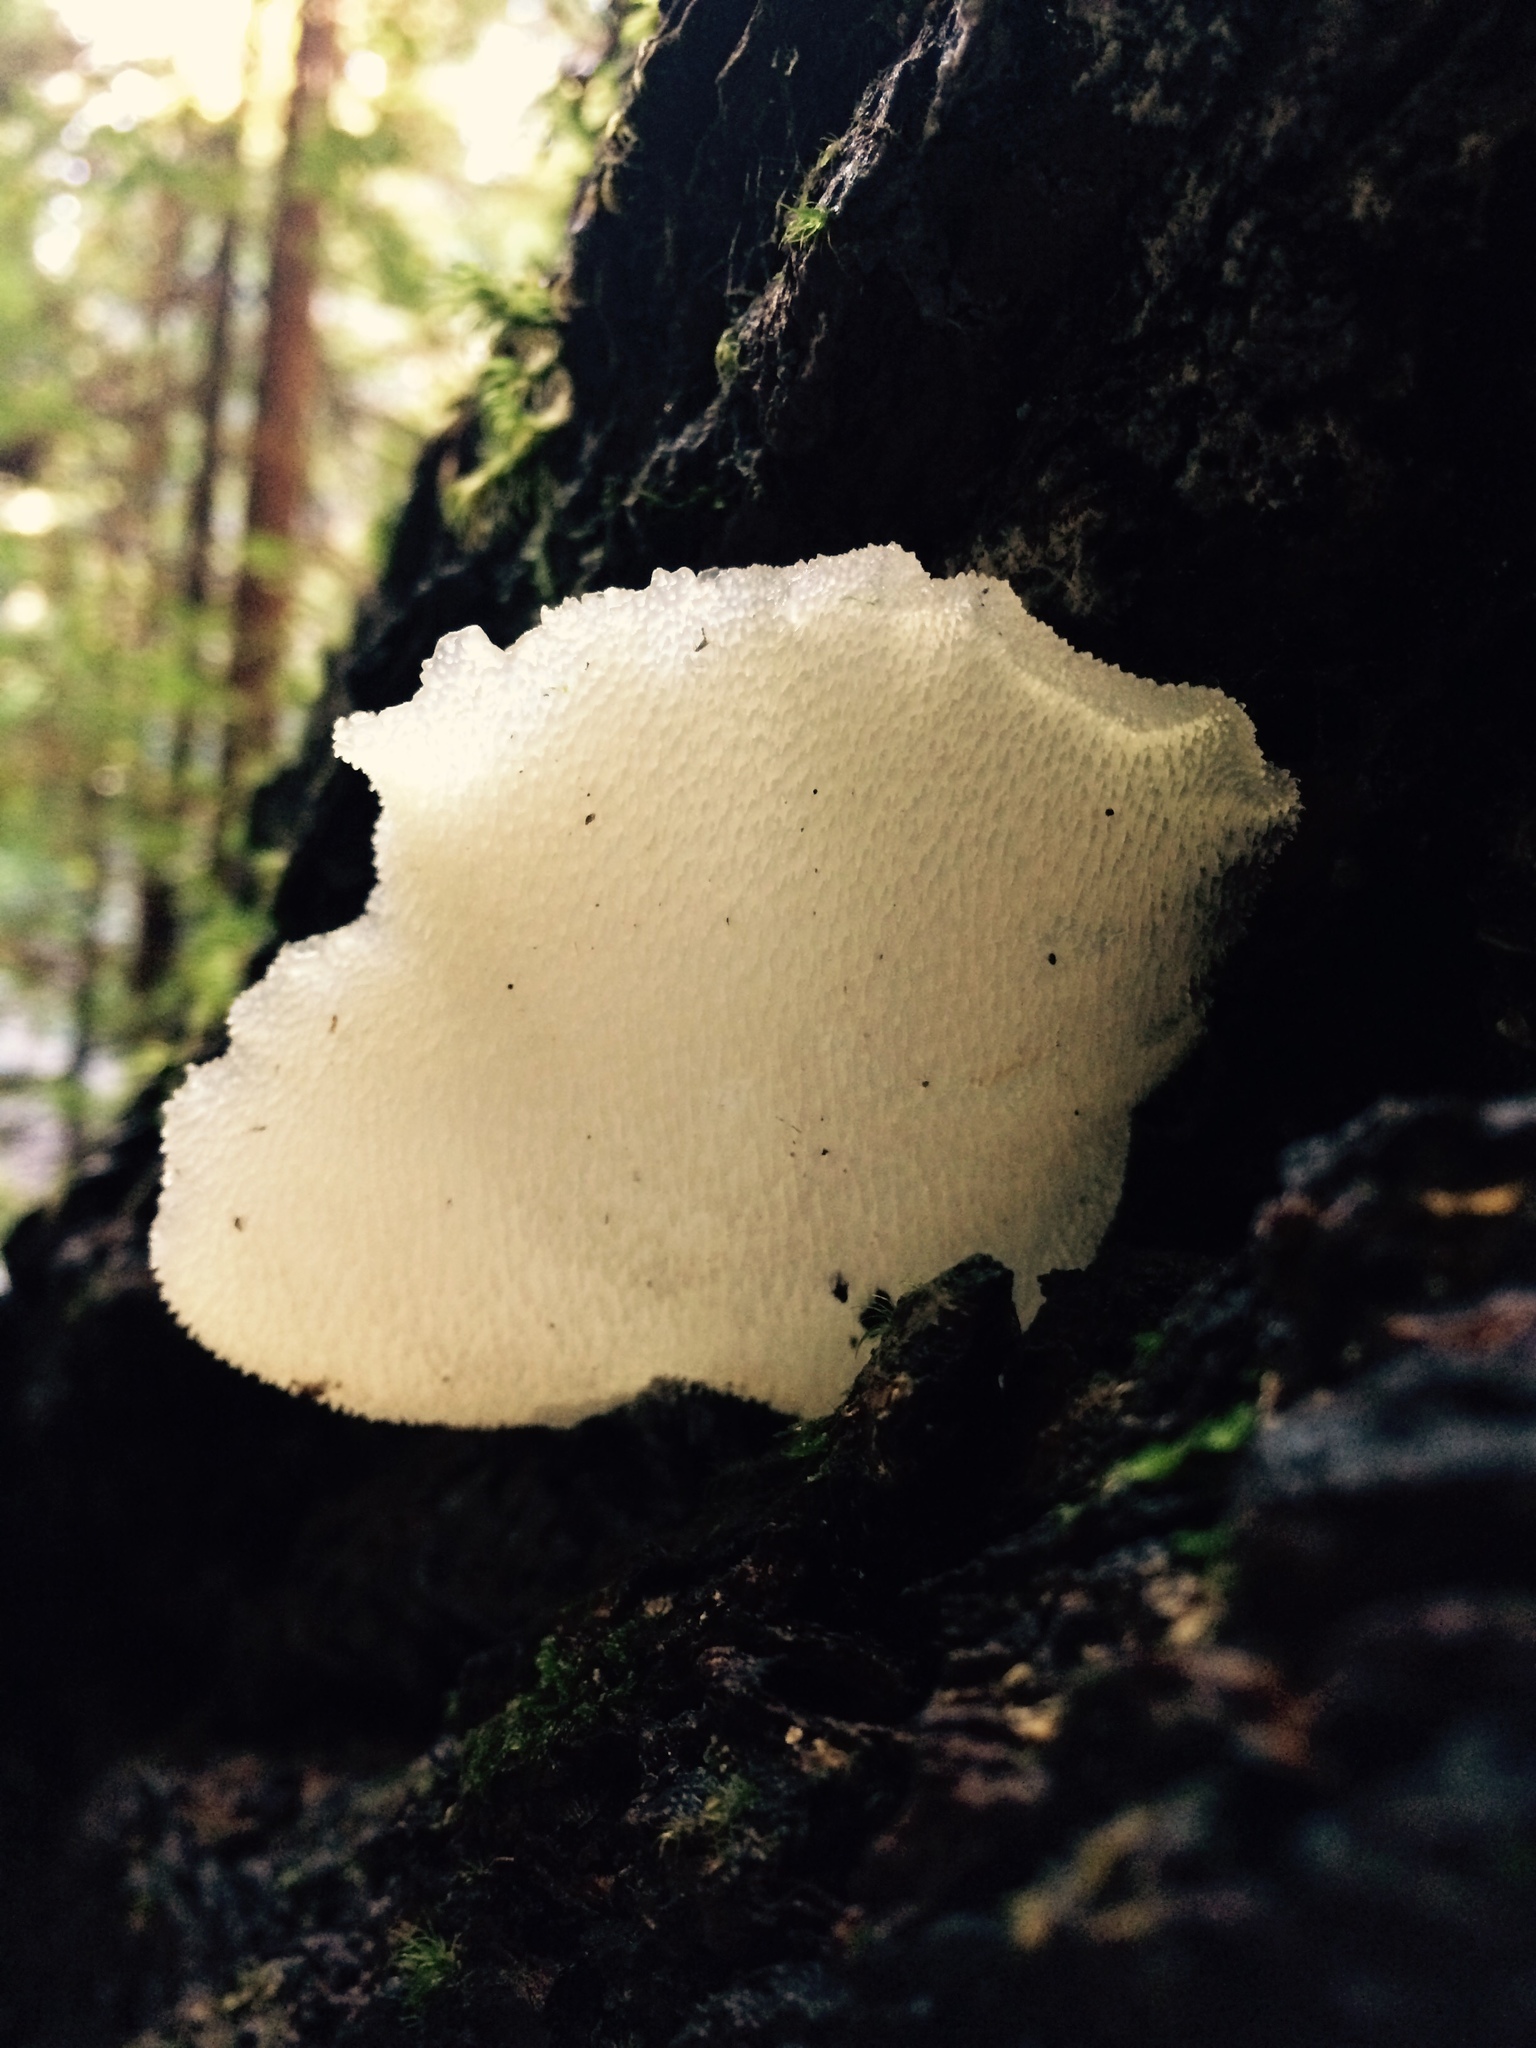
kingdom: Fungi
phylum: Basidiomycota
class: Agaricomycetes
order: Auriculariales
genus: Pseudohydnum
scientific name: Pseudohydnum gelatinosum
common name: Jelly tongue
